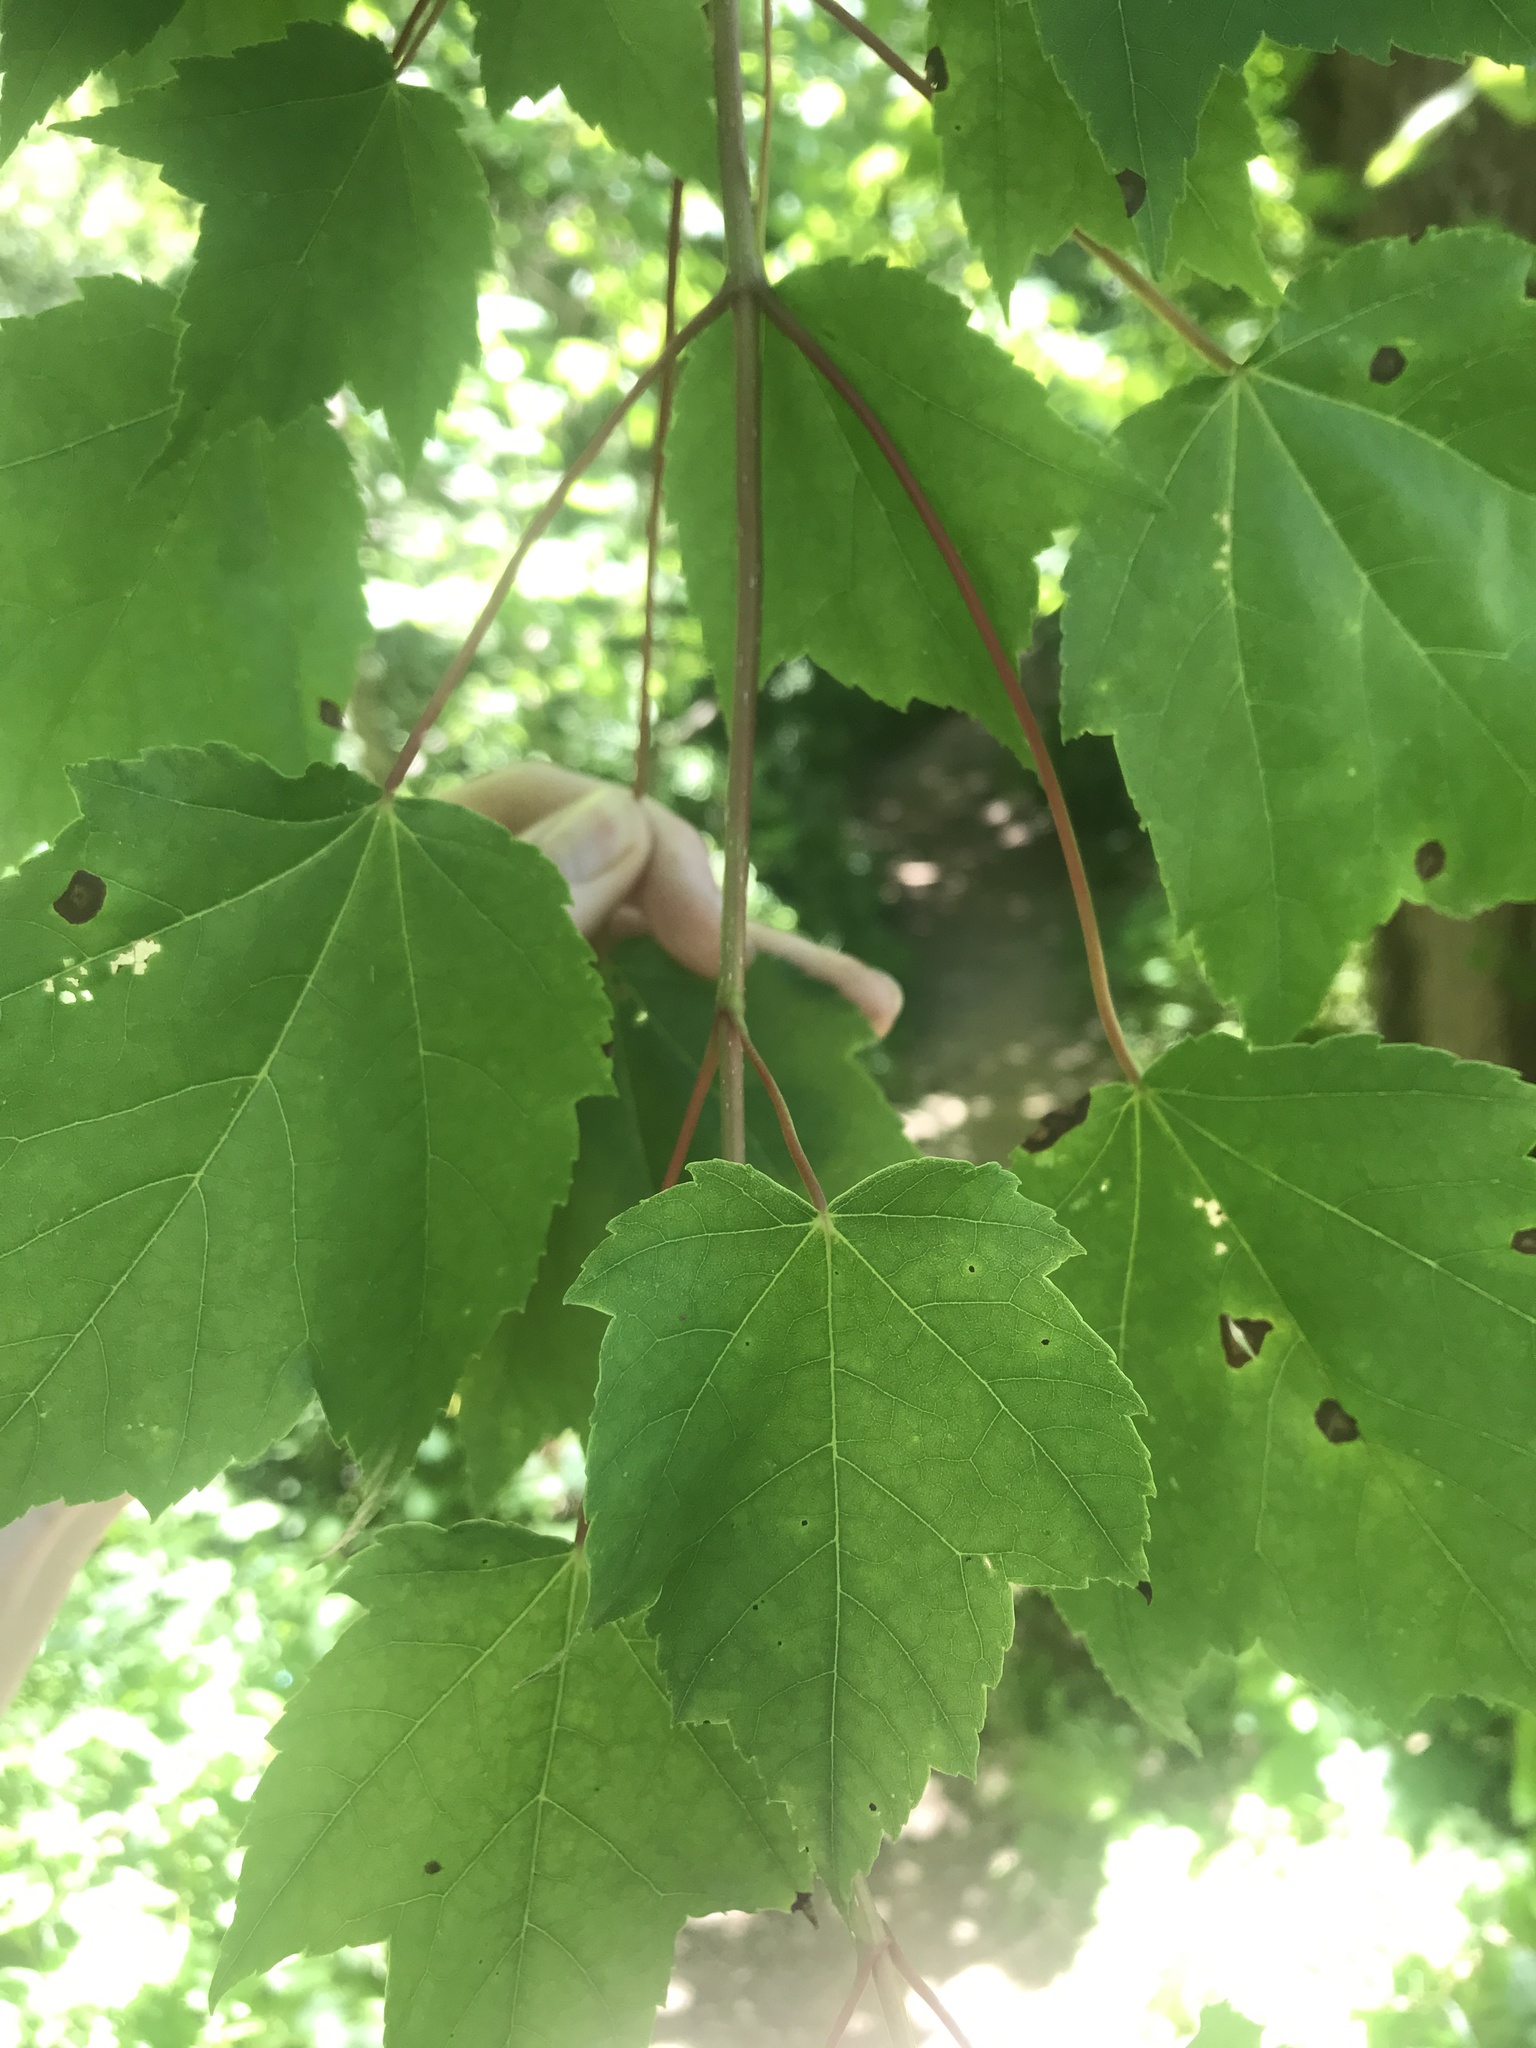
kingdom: Plantae
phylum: Tracheophyta
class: Magnoliopsida
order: Sapindales
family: Sapindaceae
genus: Acer
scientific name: Acer rubrum
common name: Red maple
